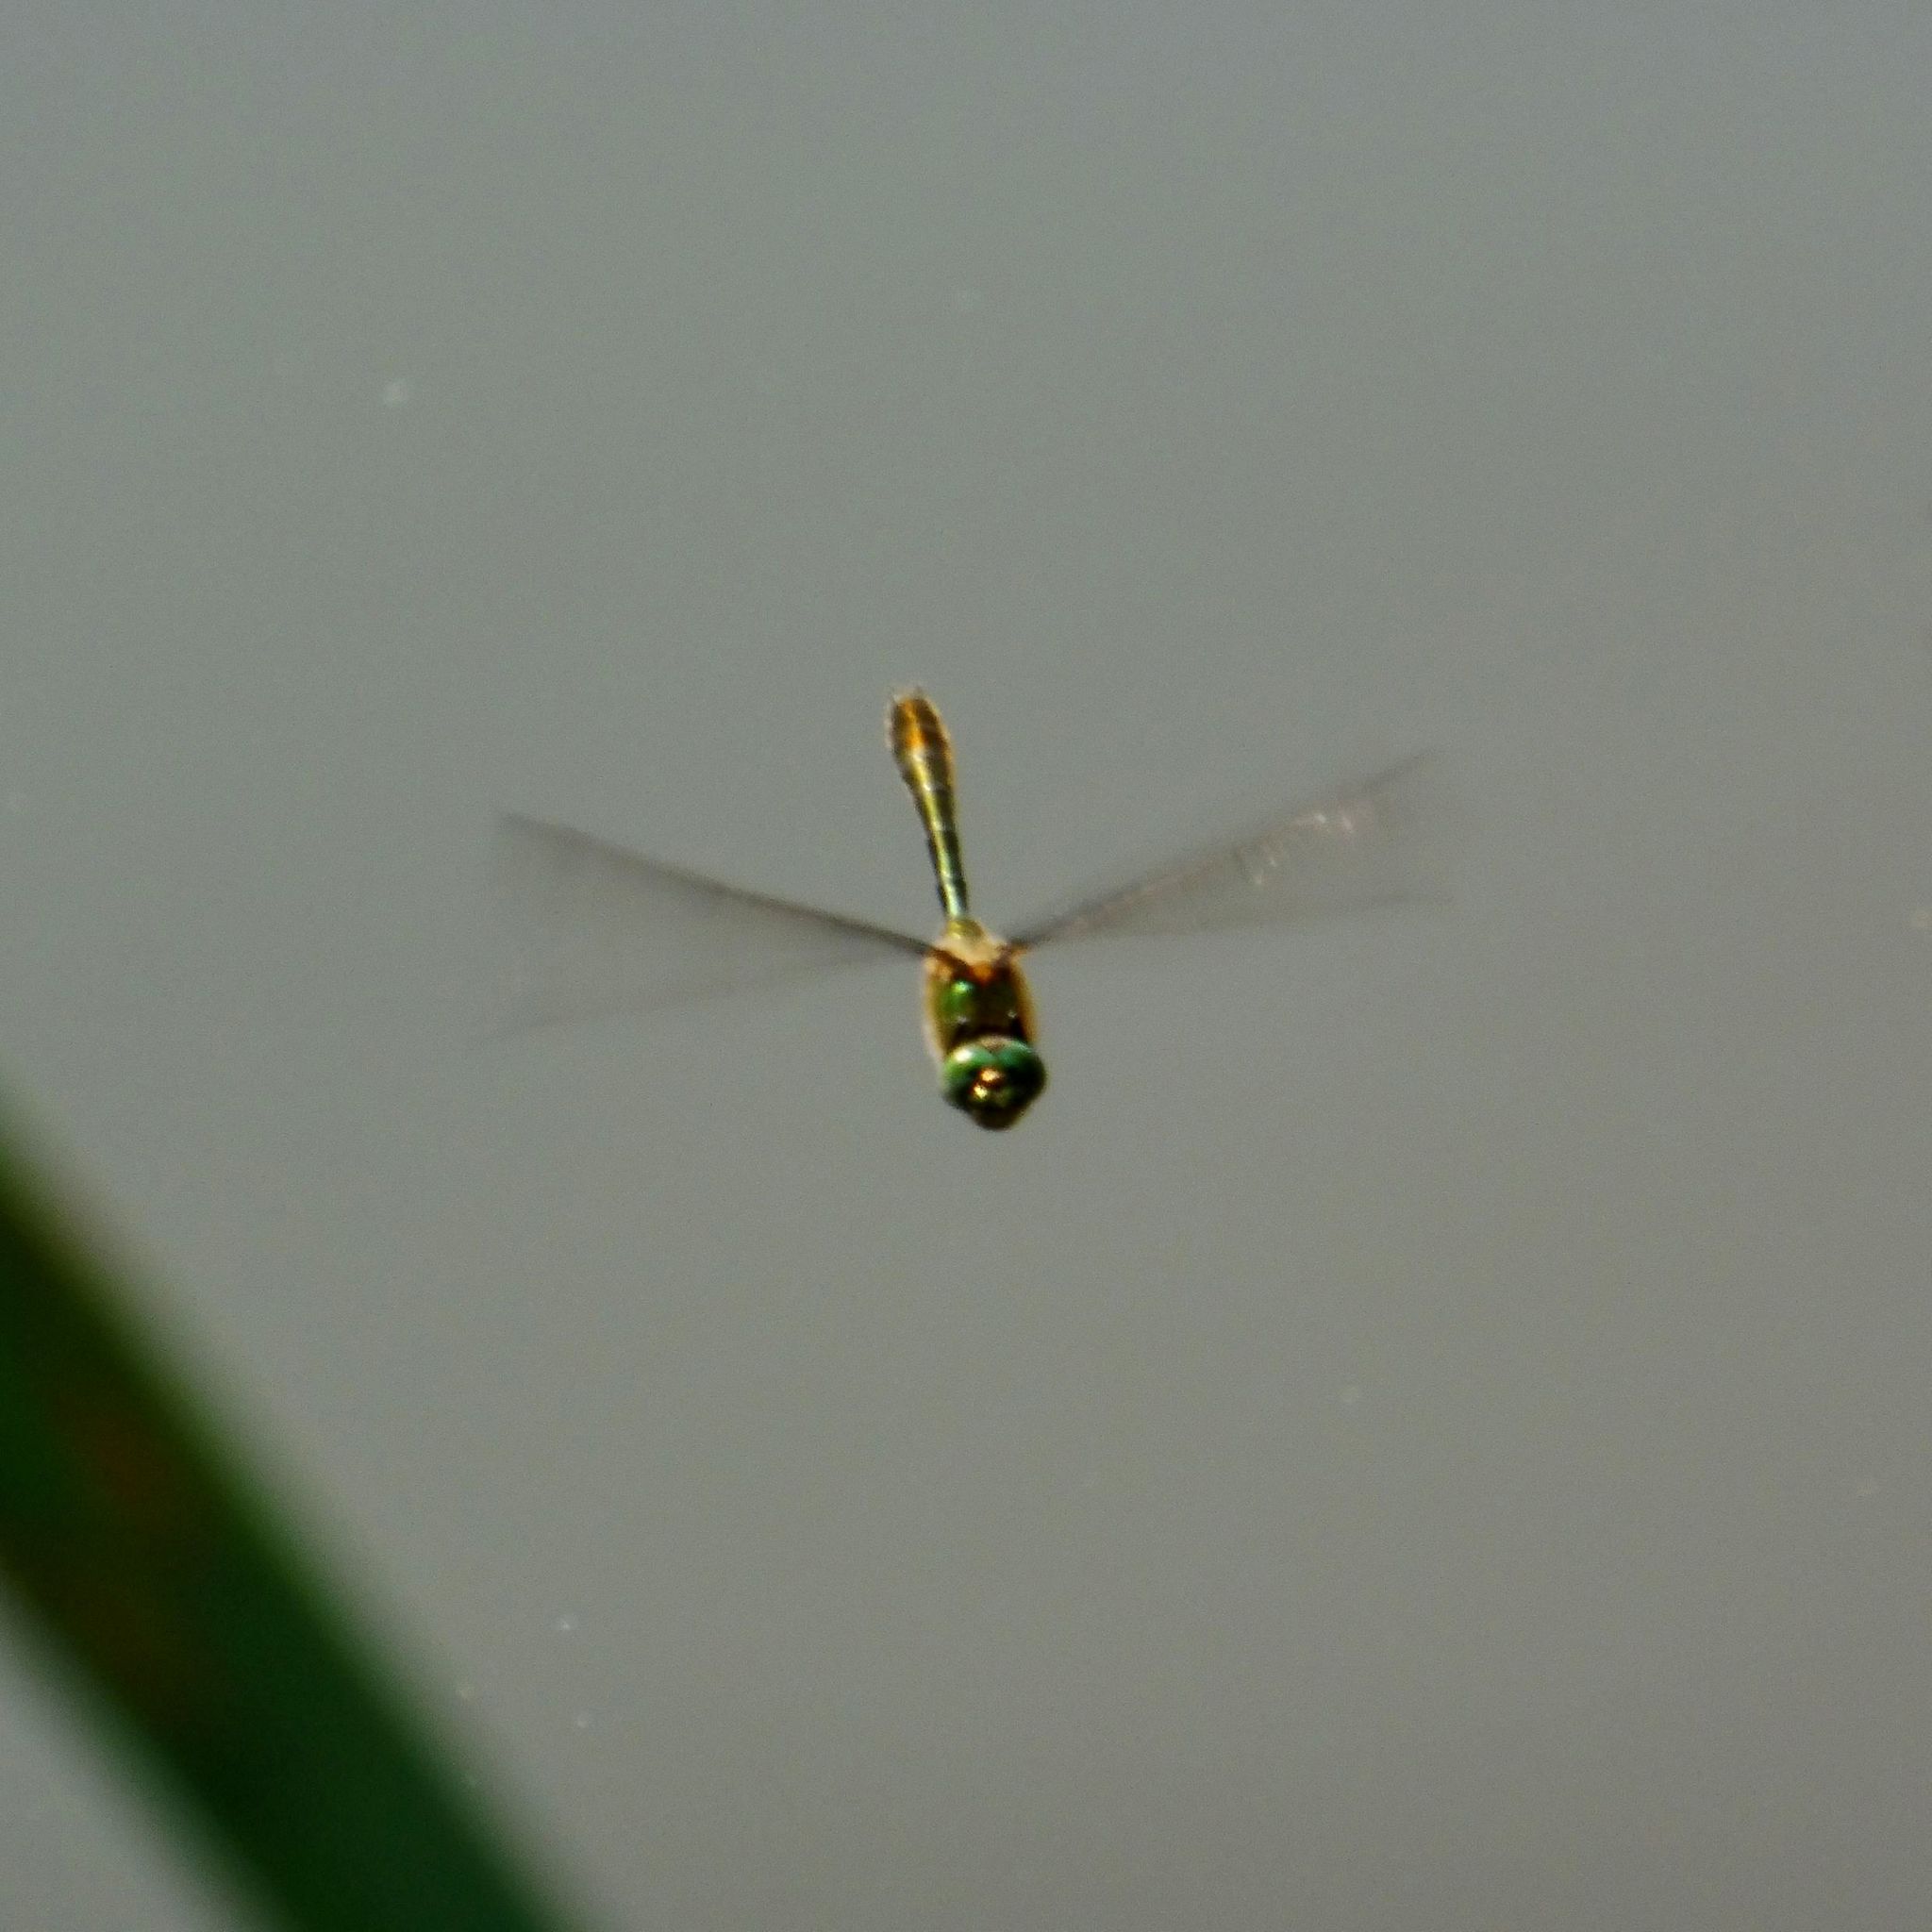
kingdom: Animalia
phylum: Arthropoda
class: Insecta
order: Odonata
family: Corduliidae
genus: Cordulia
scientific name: Cordulia aenea
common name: Downy emerald
